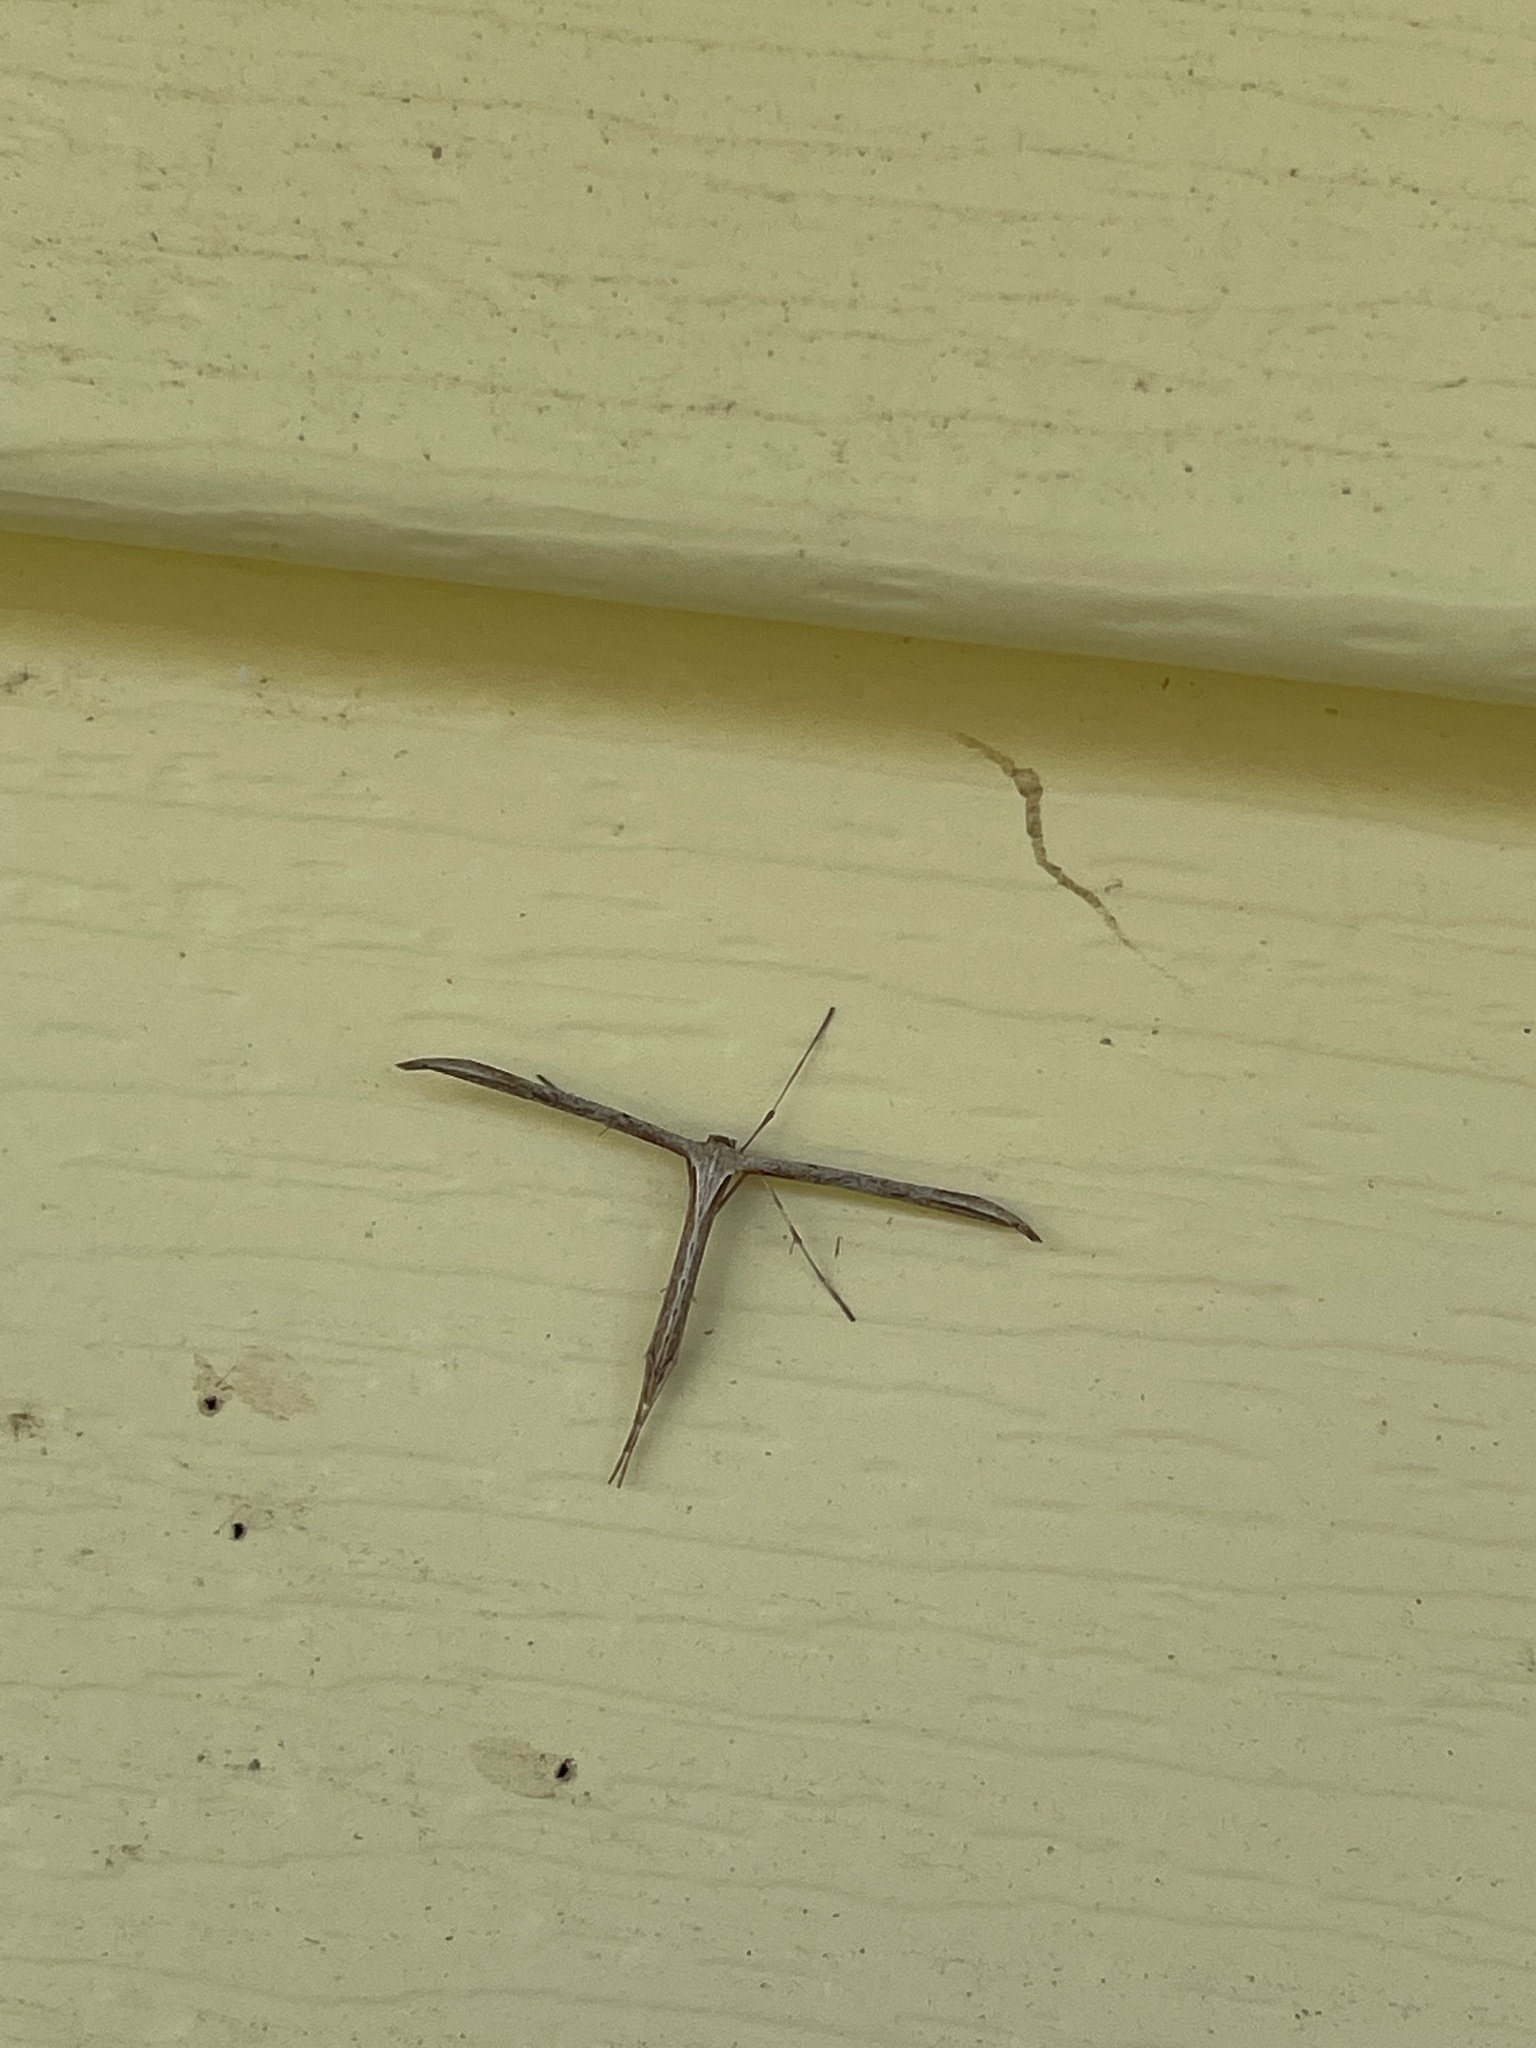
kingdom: Animalia
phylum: Arthropoda
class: Insecta
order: Lepidoptera
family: Pterophoridae
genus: Emmelina
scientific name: Emmelina monodactyla
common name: Common plume
